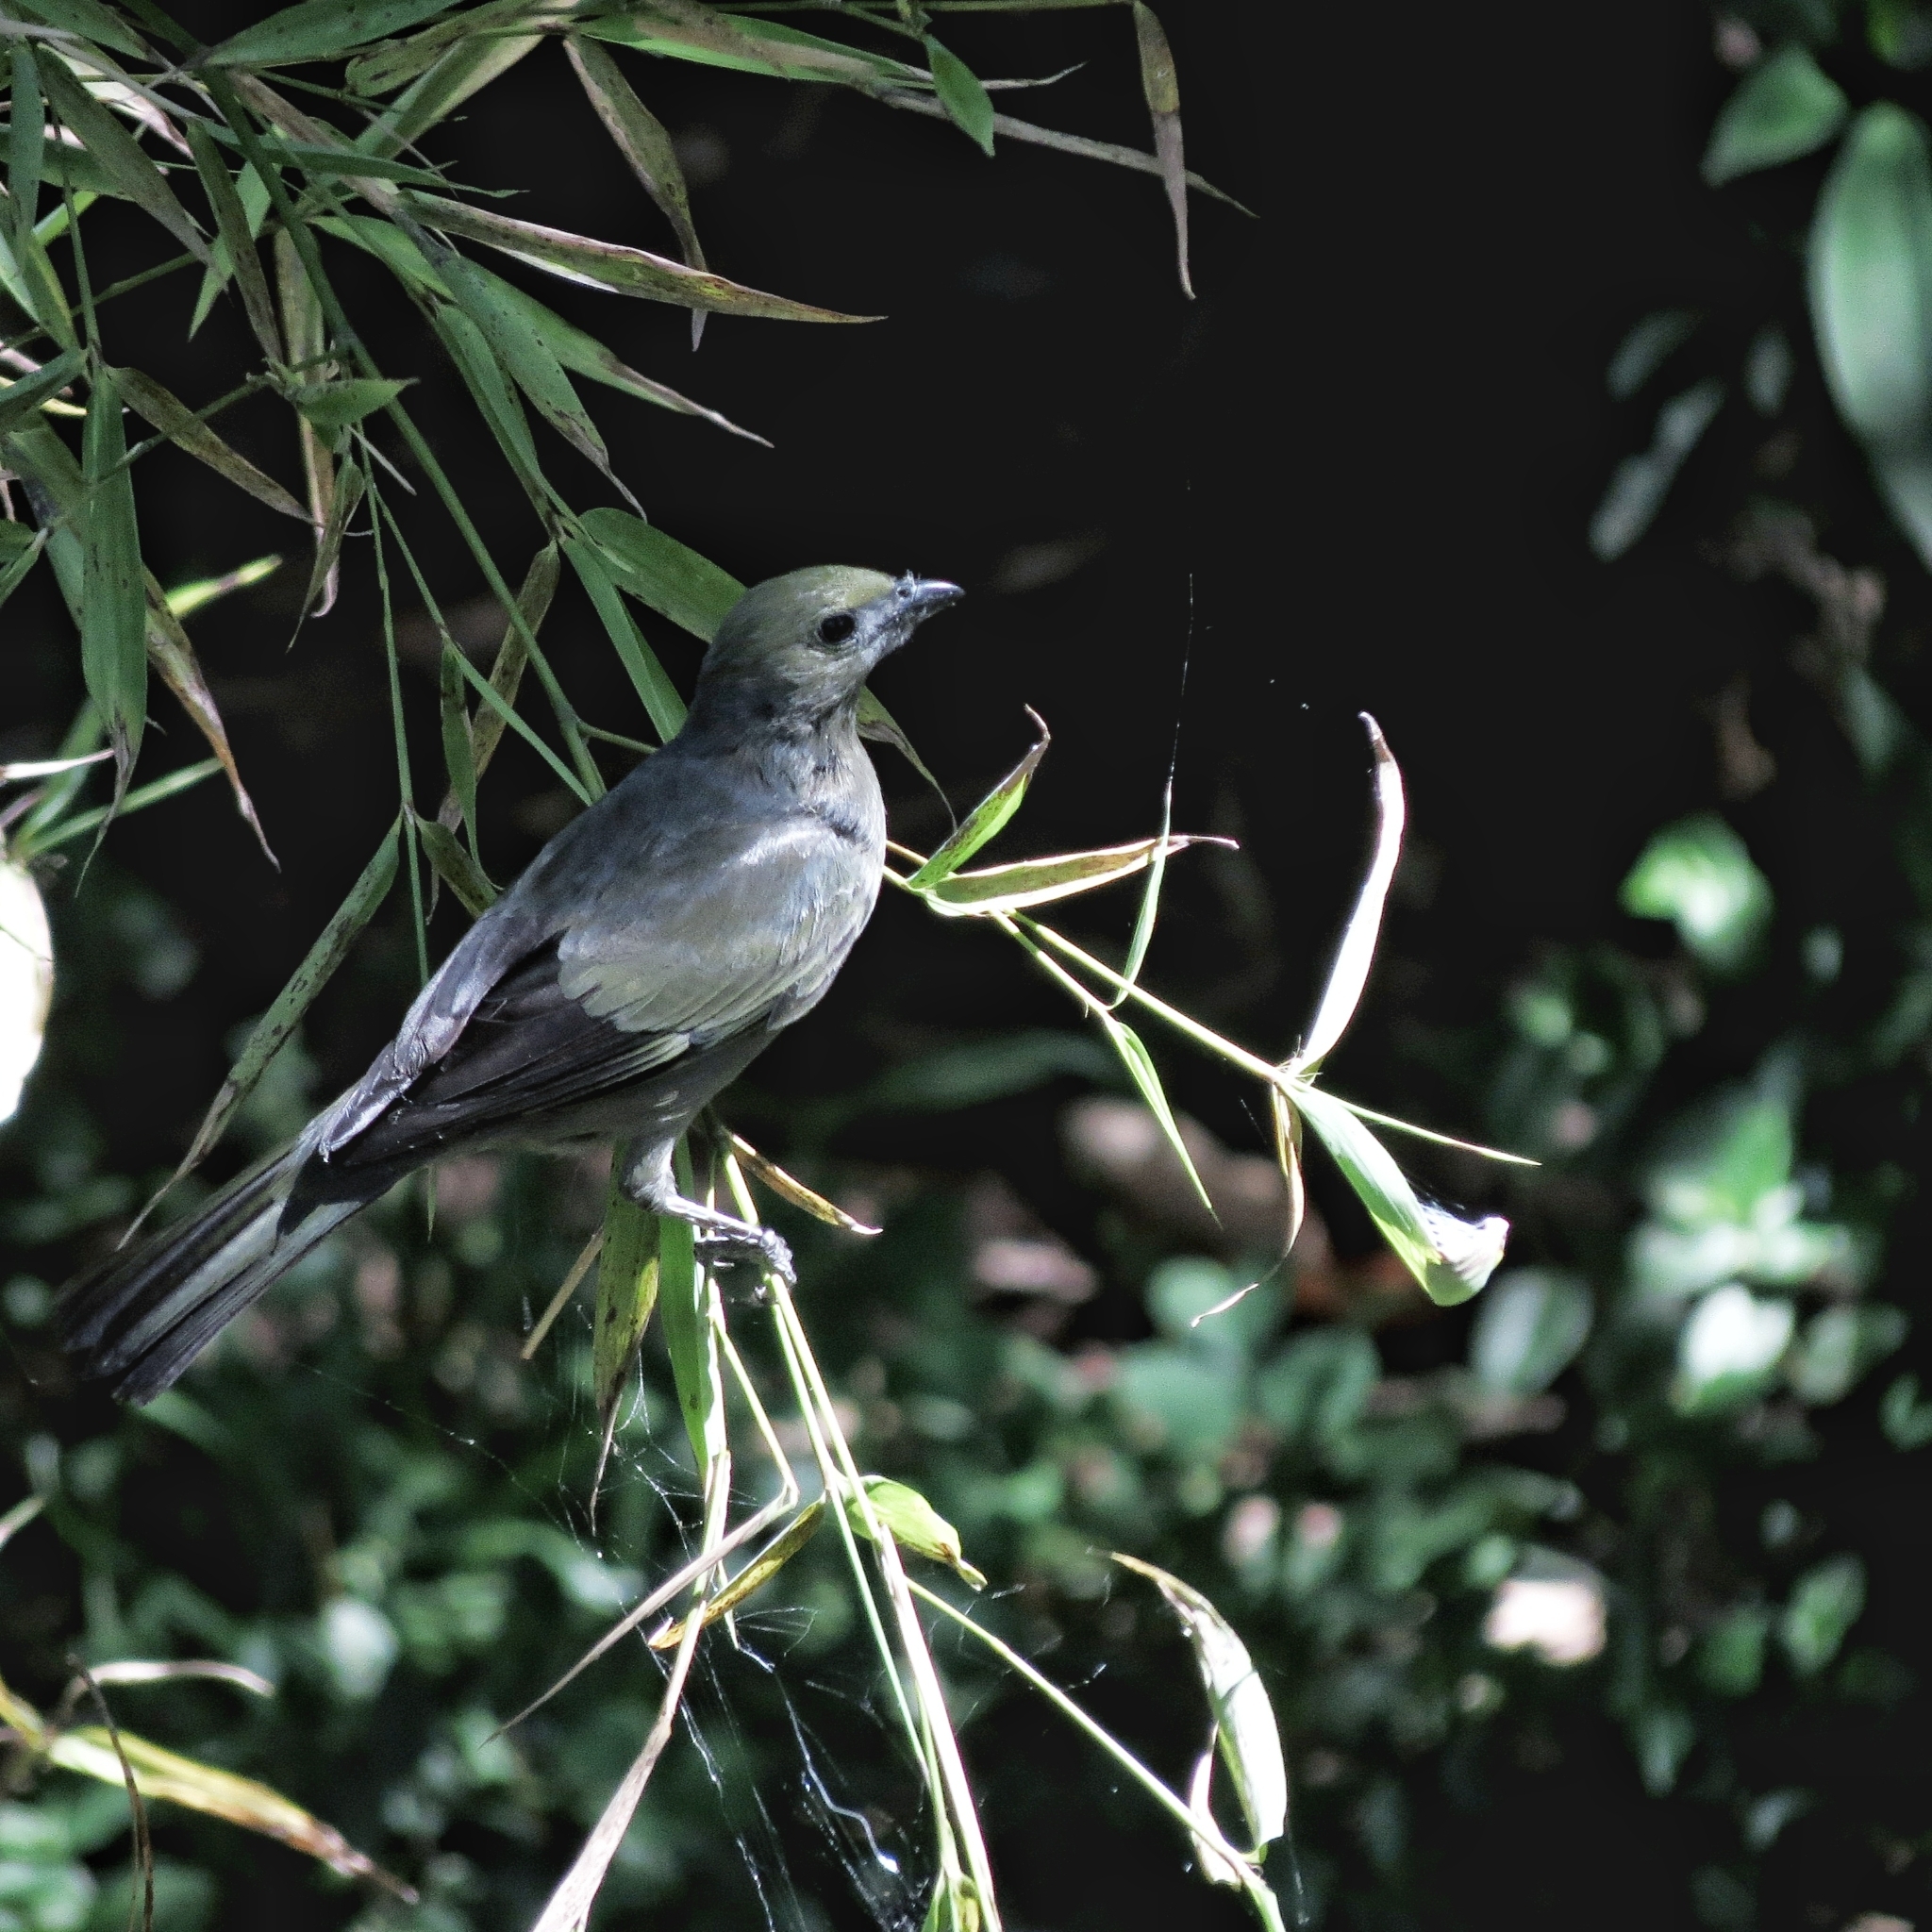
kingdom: Animalia
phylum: Chordata
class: Aves
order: Passeriformes
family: Thraupidae
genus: Thraupis
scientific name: Thraupis palmarum
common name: Palm tanager
